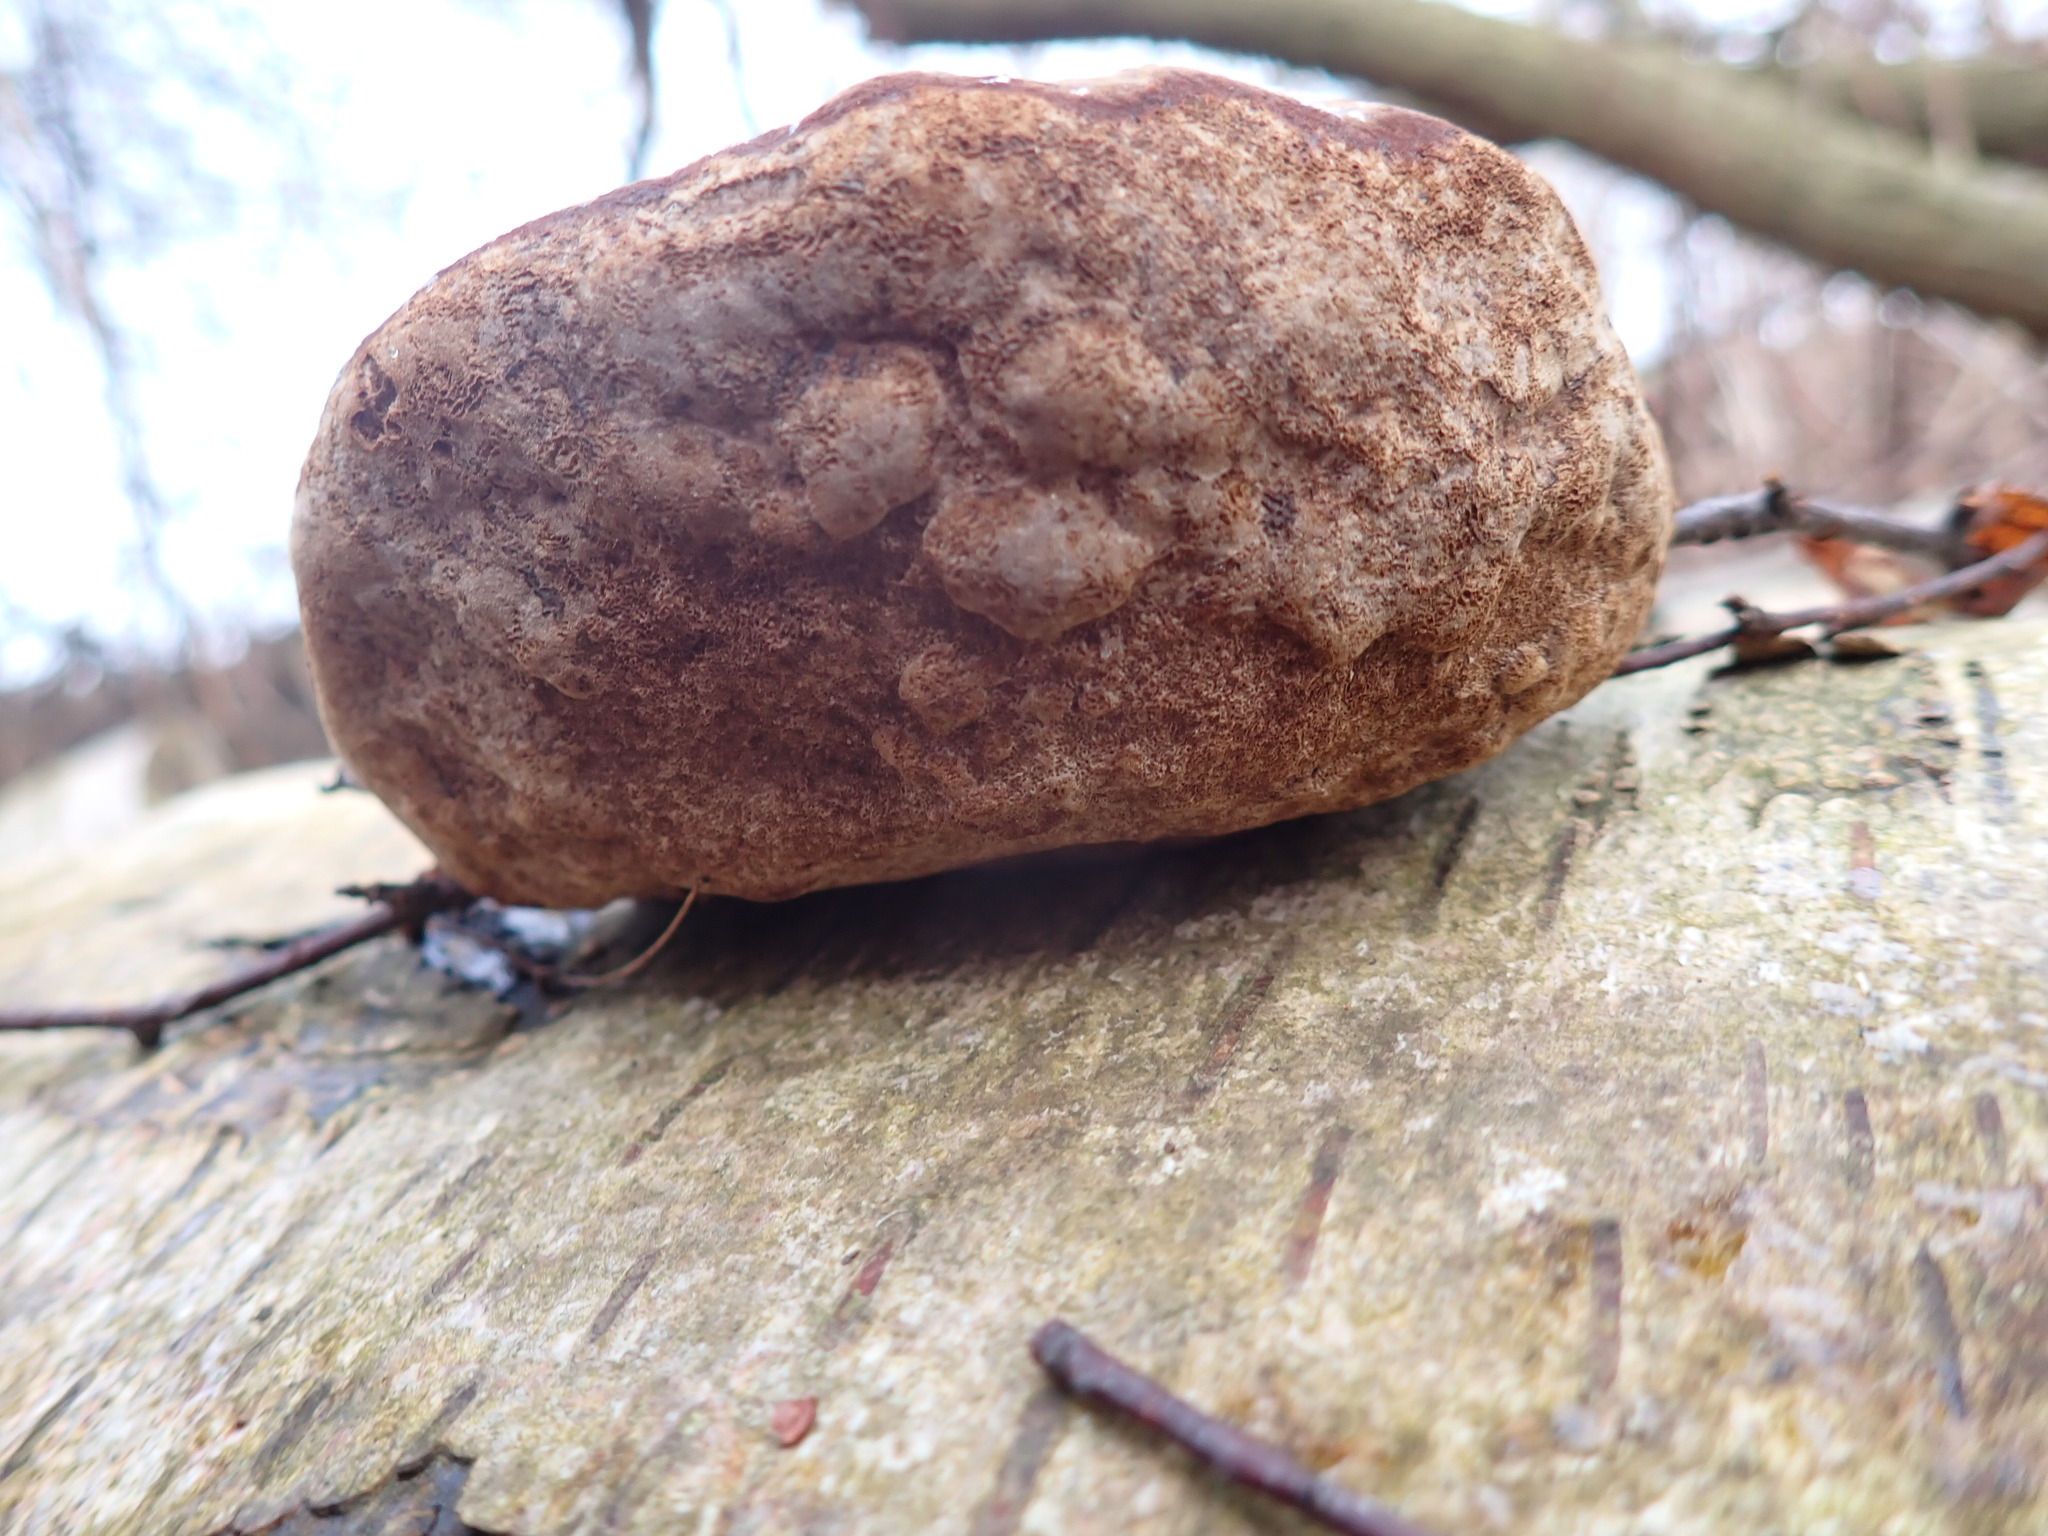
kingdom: Fungi
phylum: Basidiomycota
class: Agaricomycetes
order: Polyporales
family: Polyporaceae
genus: Fomes
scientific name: Fomes fomentarius
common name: Hoof fungus
